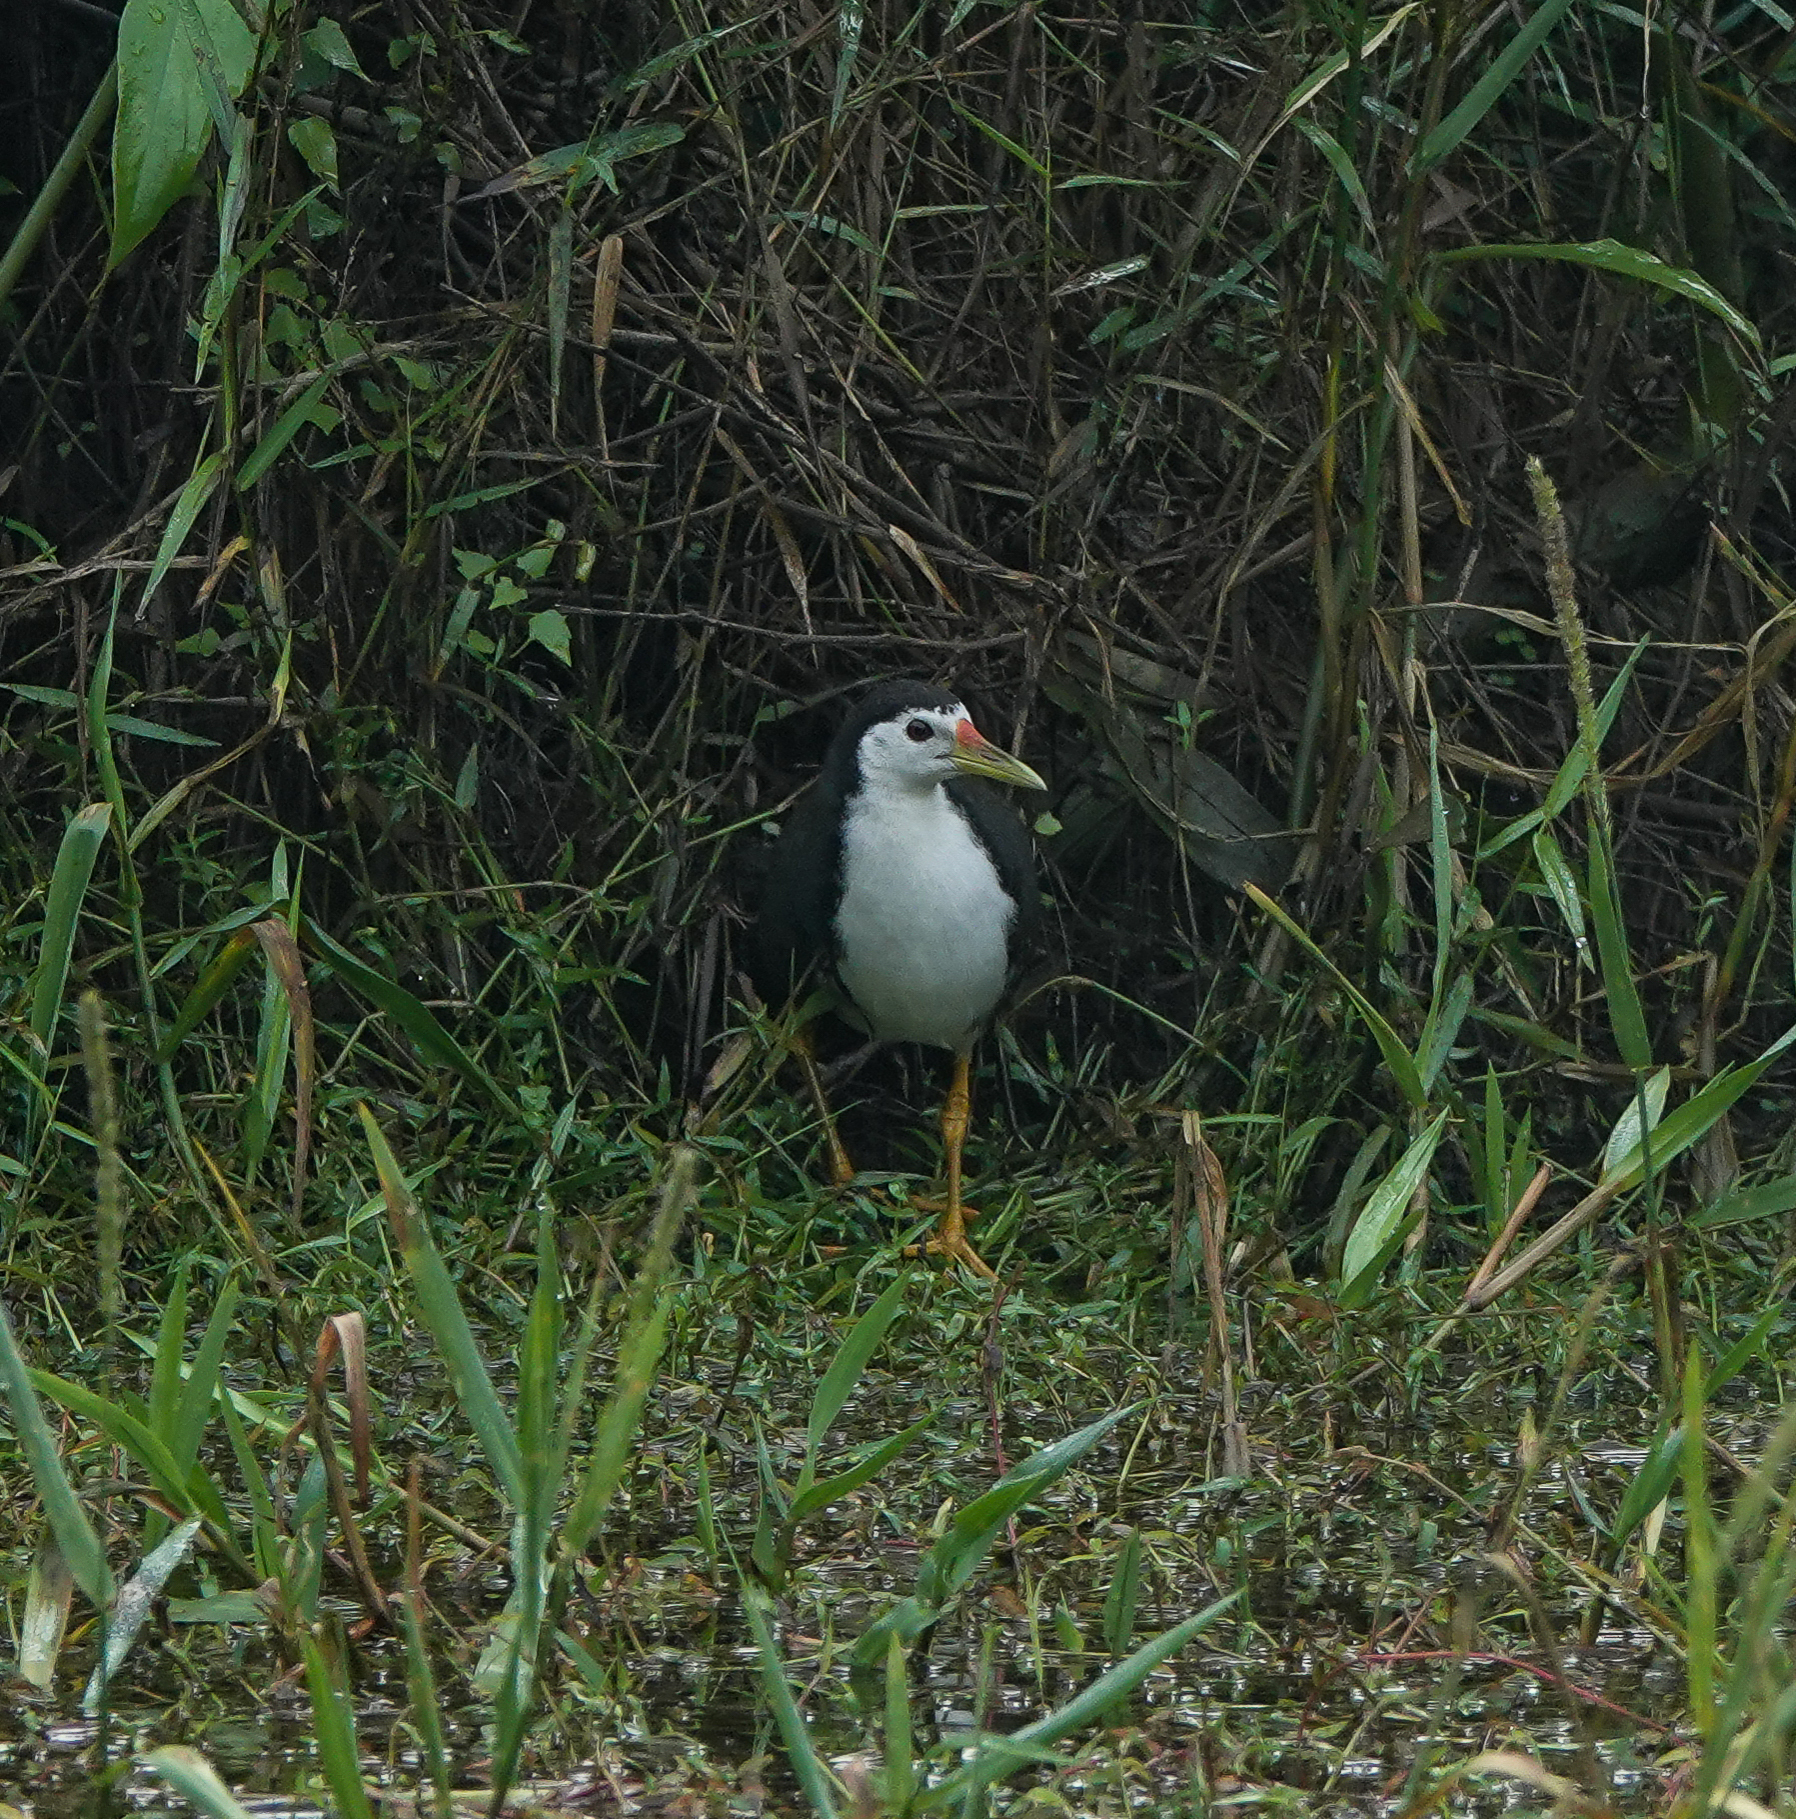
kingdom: Animalia
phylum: Chordata
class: Aves
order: Gruiformes
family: Rallidae
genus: Amaurornis
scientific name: Amaurornis phoenicurus
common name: White-breasted waterhen
